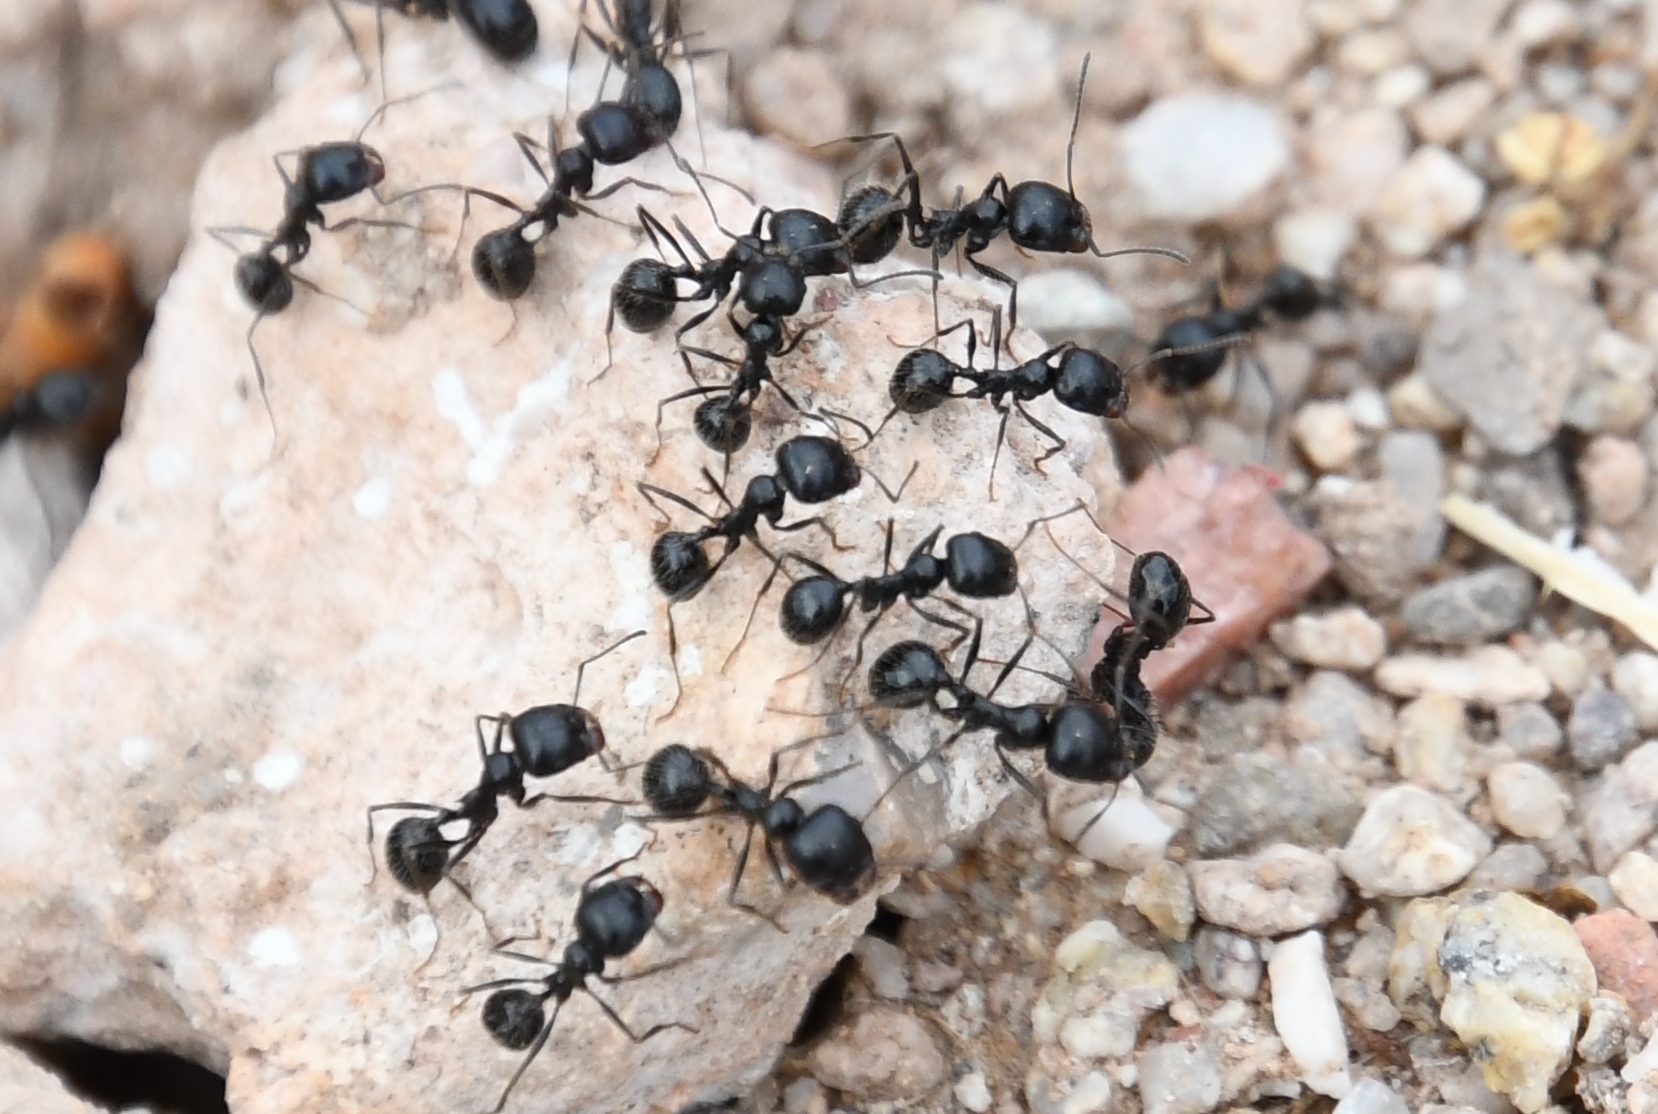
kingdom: Animalia
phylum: Arthropoda
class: Insecta
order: Hymenoptera
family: Formicidae
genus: Messor
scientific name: Messor pergandei
